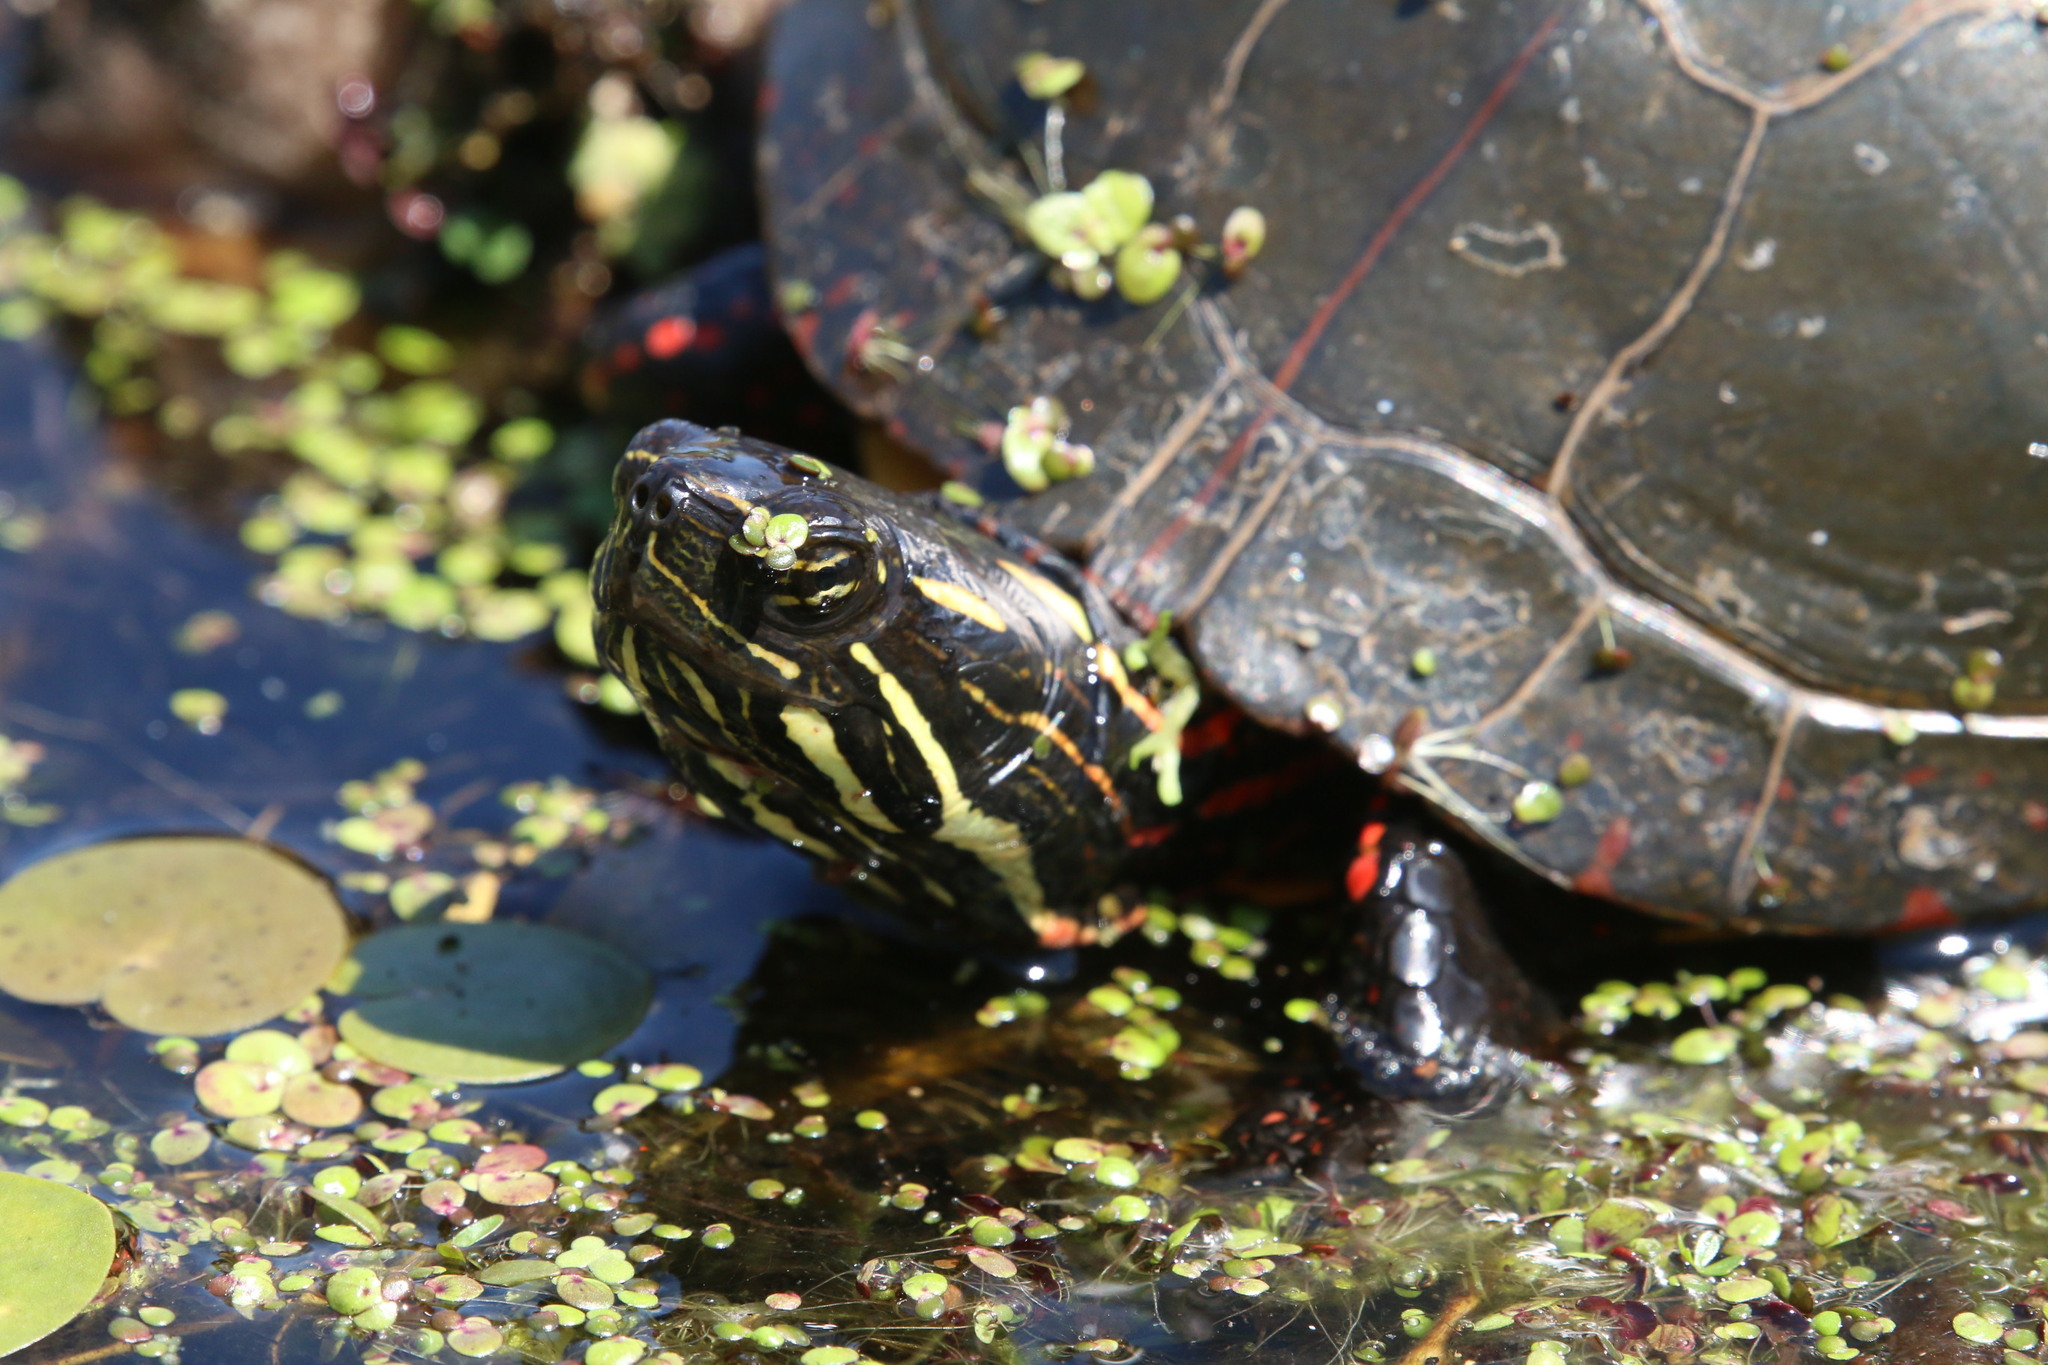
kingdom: Animalia
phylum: Chordata
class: Testudines
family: Emydidae
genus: Chrysemys
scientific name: Chrysemys picta
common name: Painted turtle
